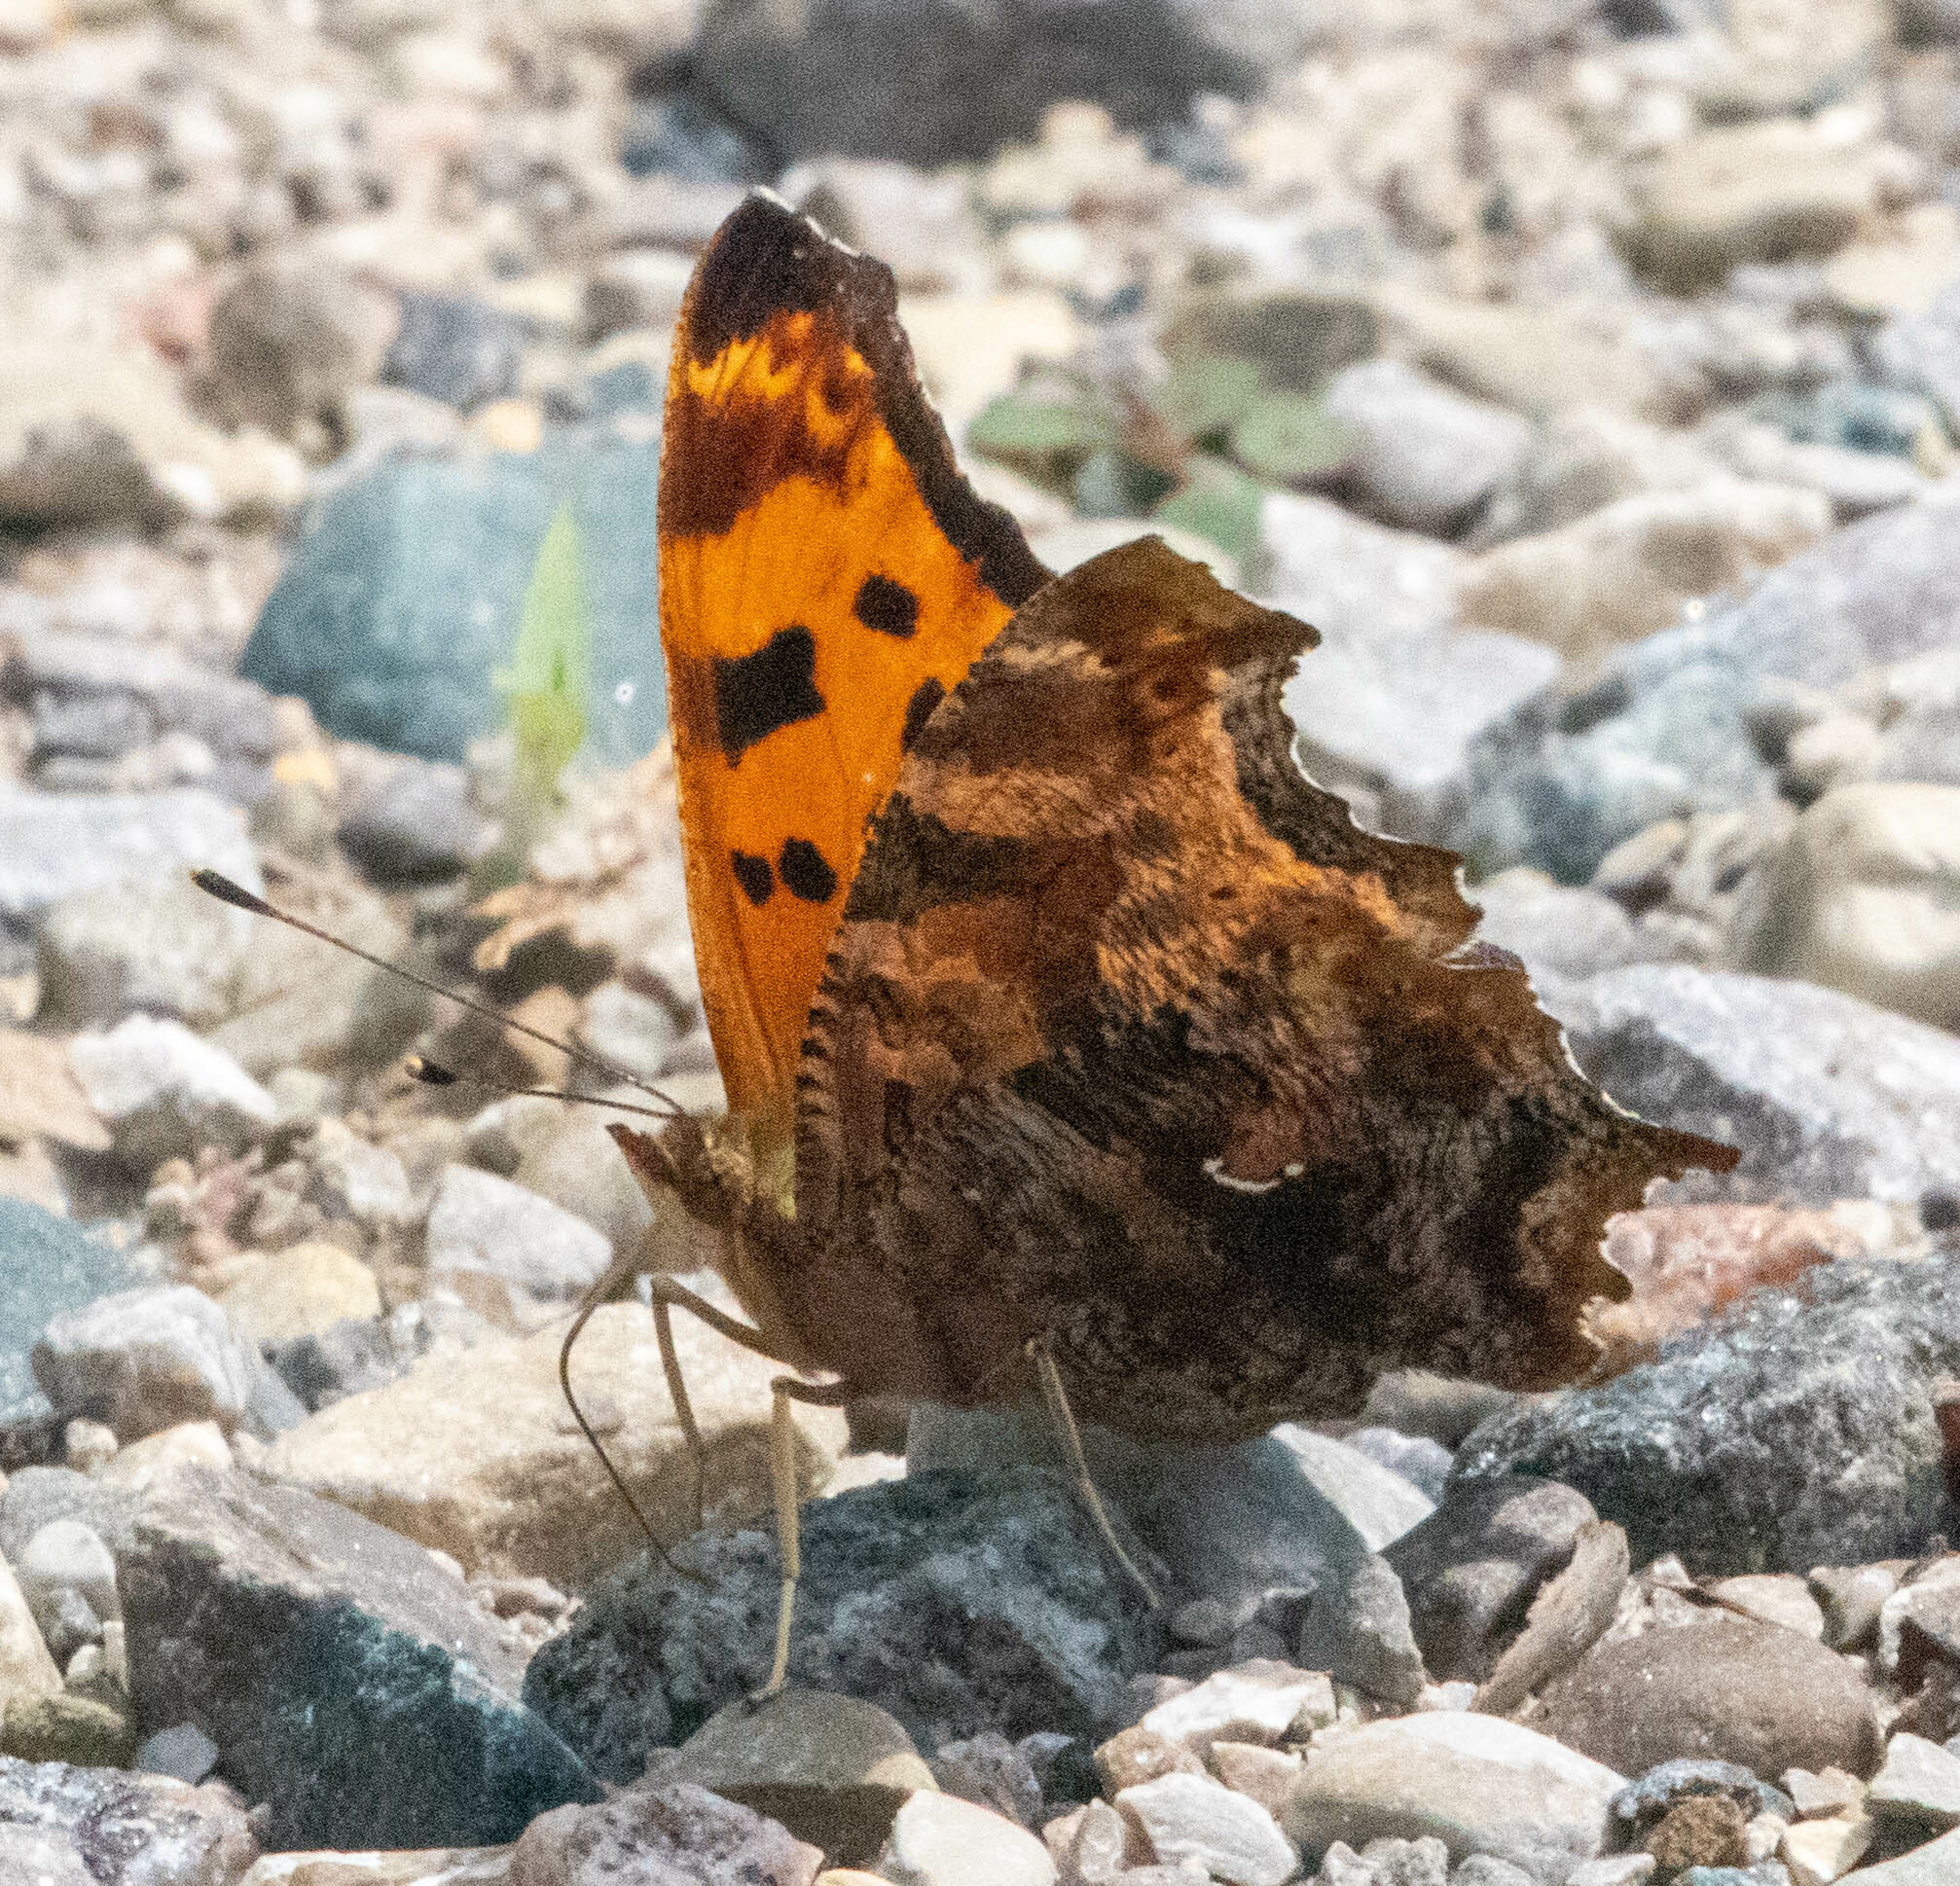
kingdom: Animalia
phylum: Arthropoda
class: Insecta
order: Lepidoptera
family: Nymphalidae
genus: Polygonia
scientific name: Polygonia comma
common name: Eastern comma
